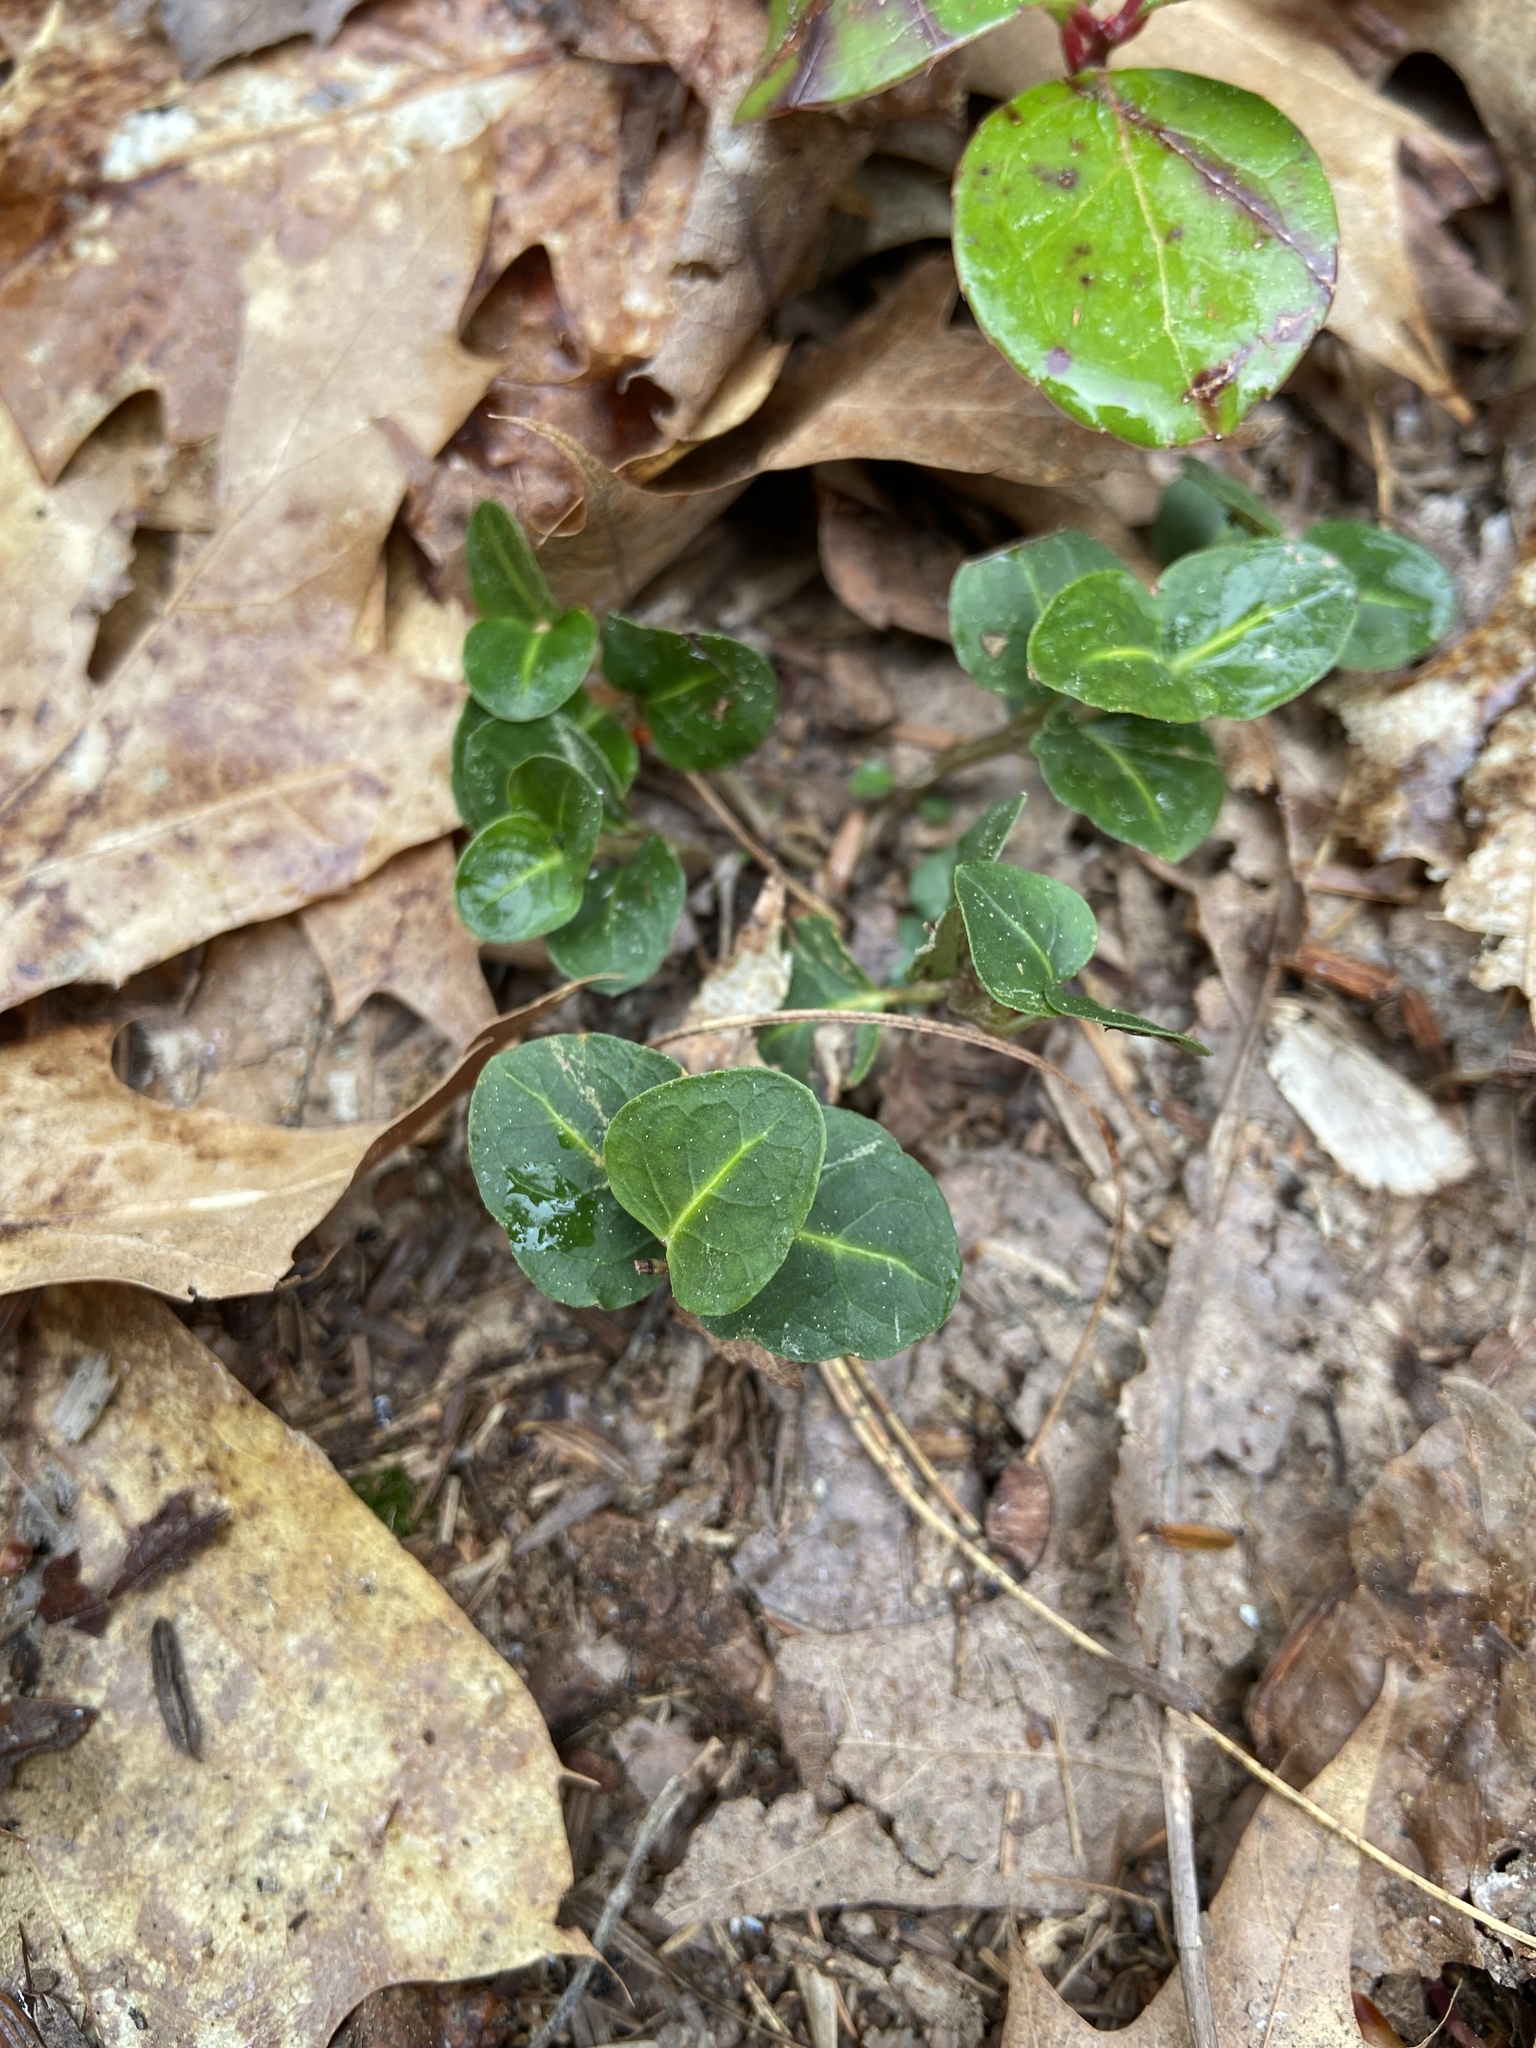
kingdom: Plantae
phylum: Tracheophyta
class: Magnoliopsida
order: Gentianales
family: Rubiaceae
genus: Mitchella
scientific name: Mitchella repens
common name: Partridge-berry
